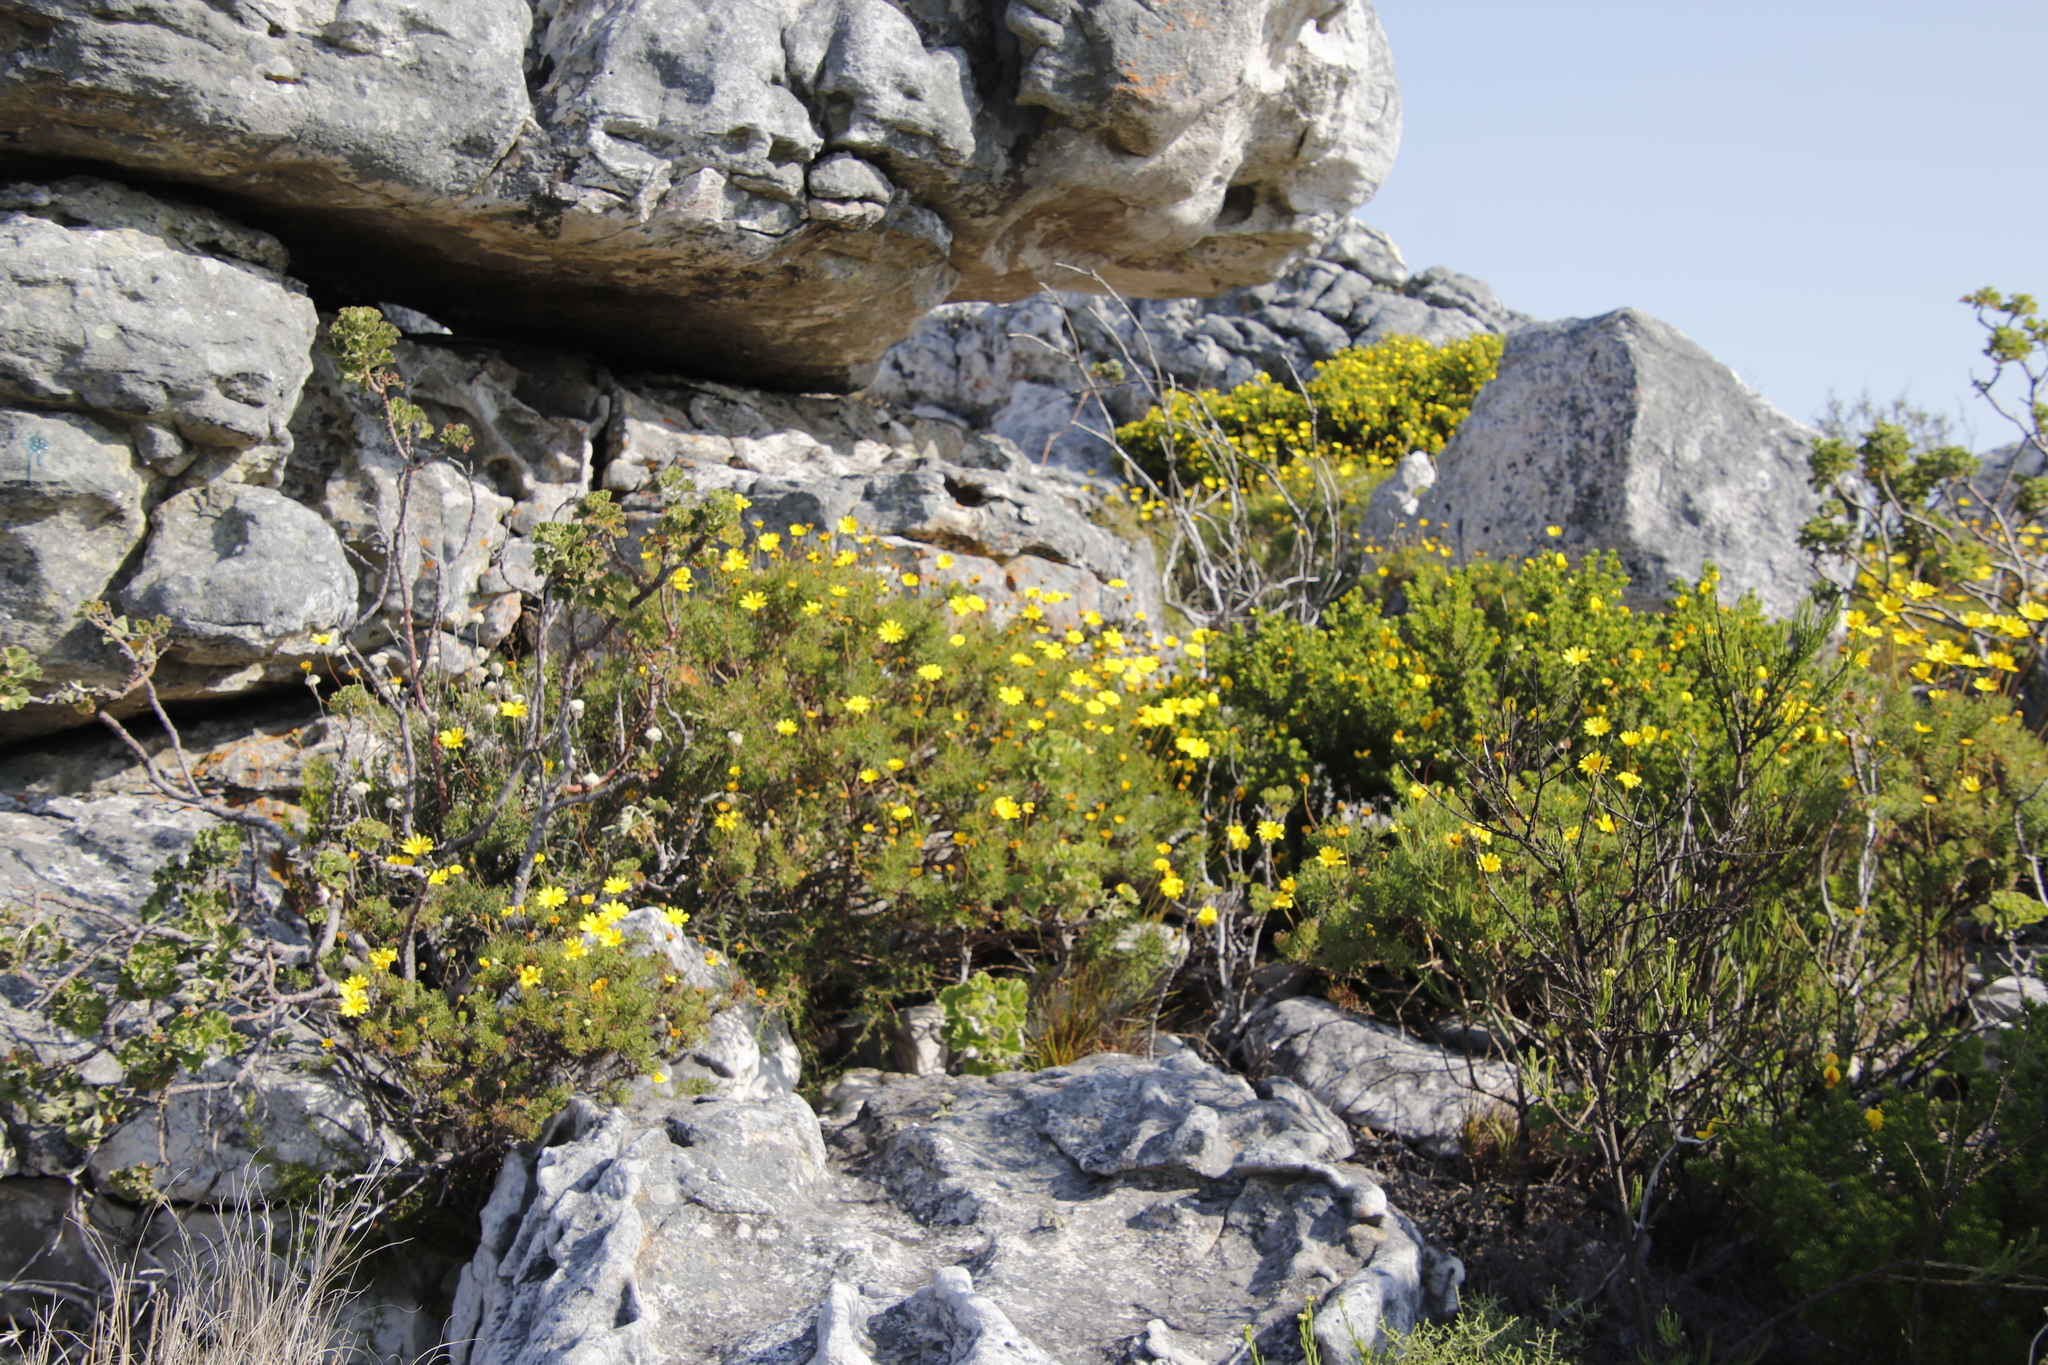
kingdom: Plantae
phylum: Tracheophyta
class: Magnoliopsida
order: Asterales
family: Asteraceae
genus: Euryops
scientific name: Euryops abrotanifolius
